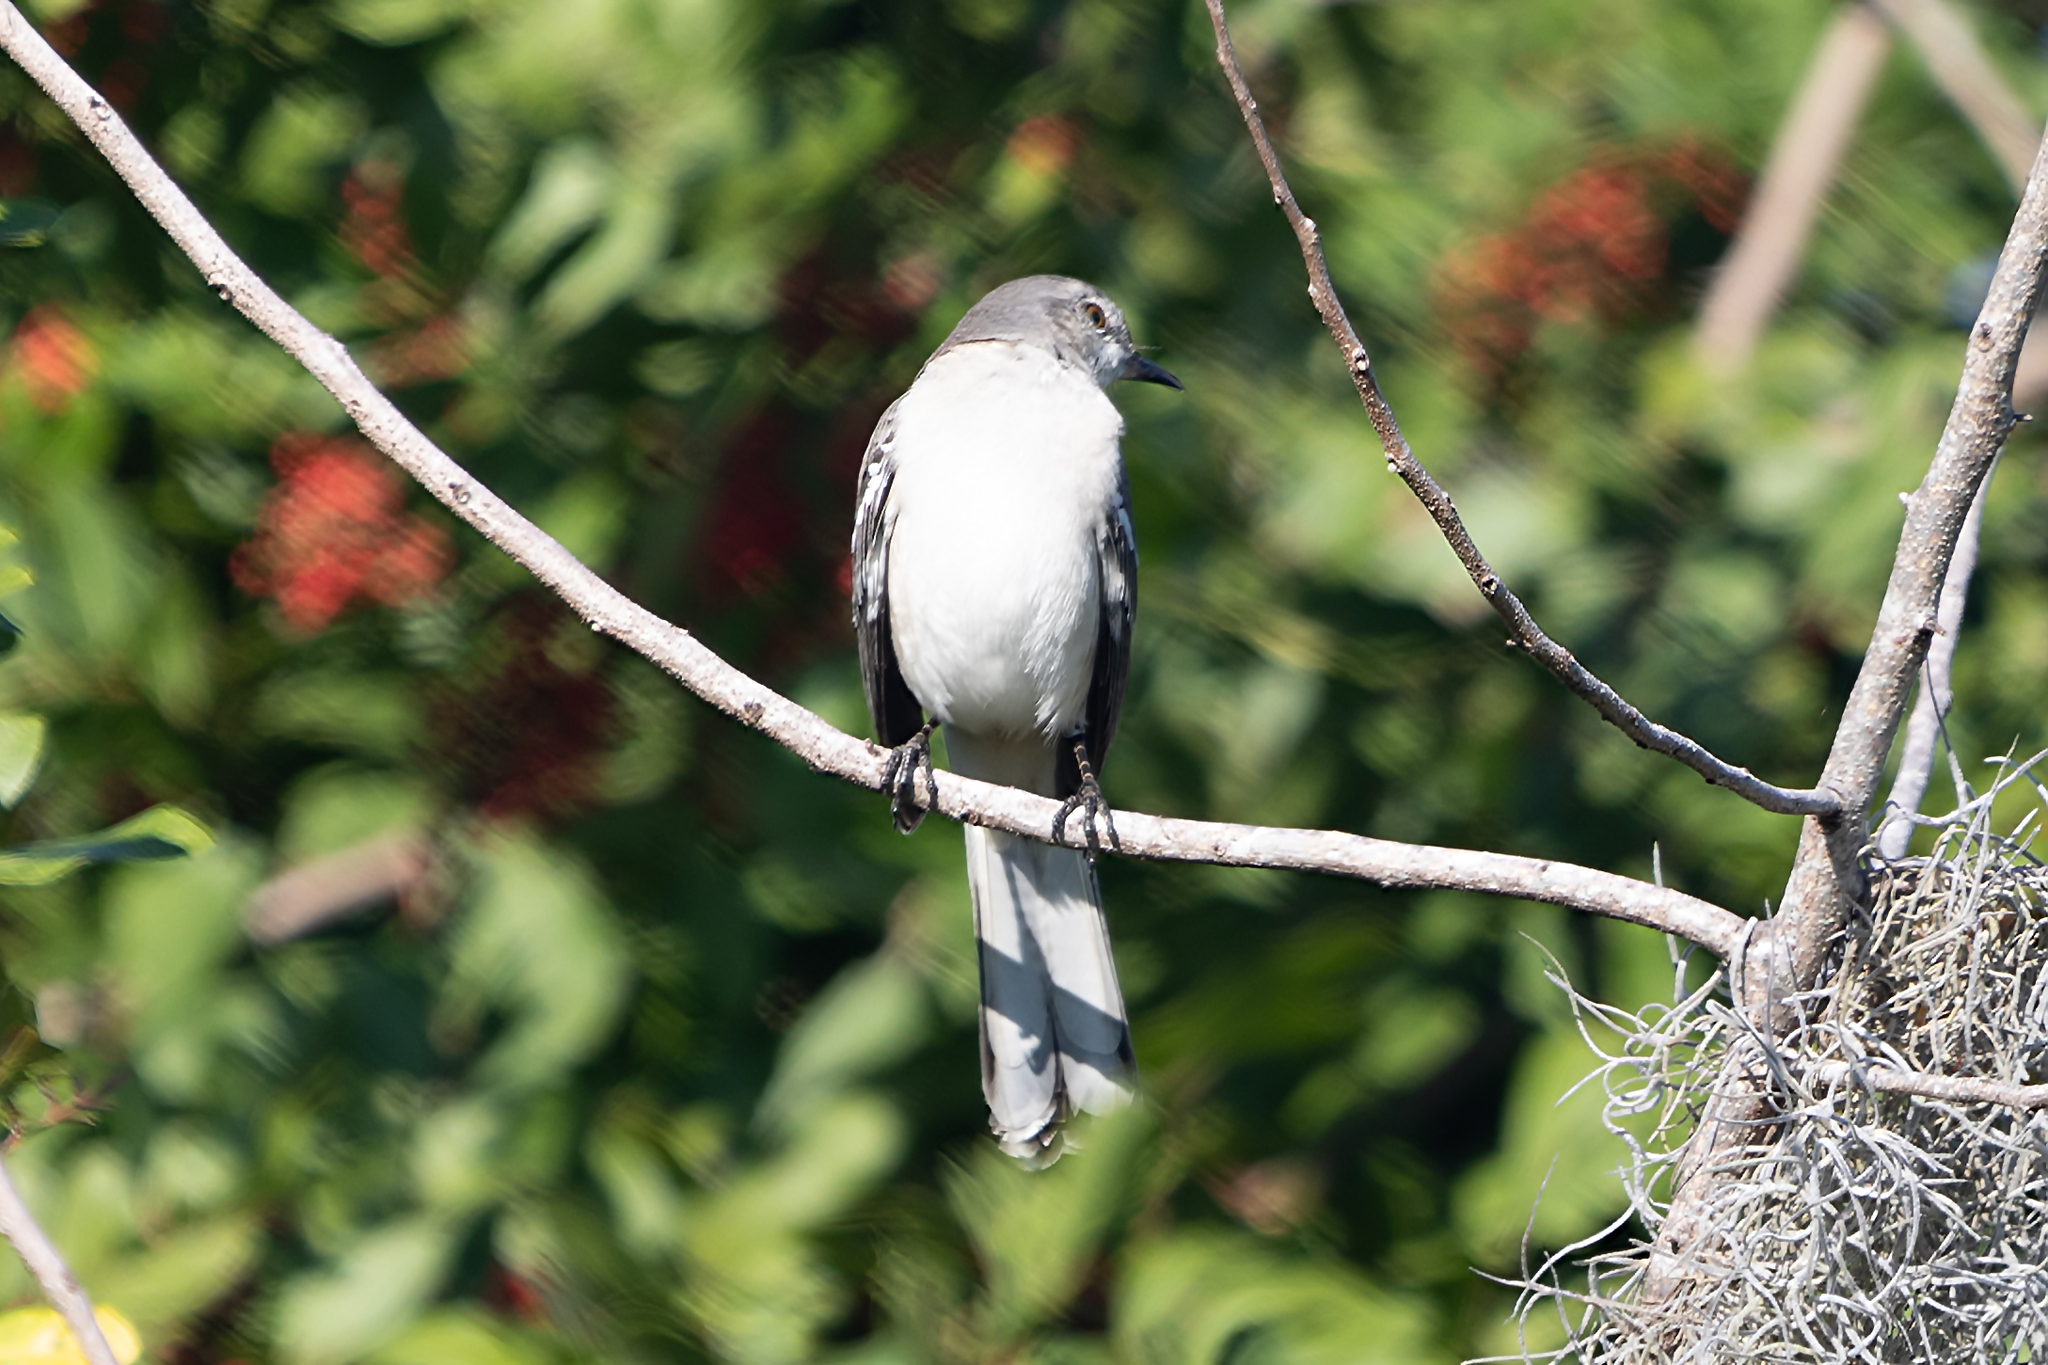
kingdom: Animalia
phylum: Chordata
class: Aves
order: Passeriformes
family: Mimidae
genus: Mimus
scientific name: Mimus polyglottos
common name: Northern mockingbird
